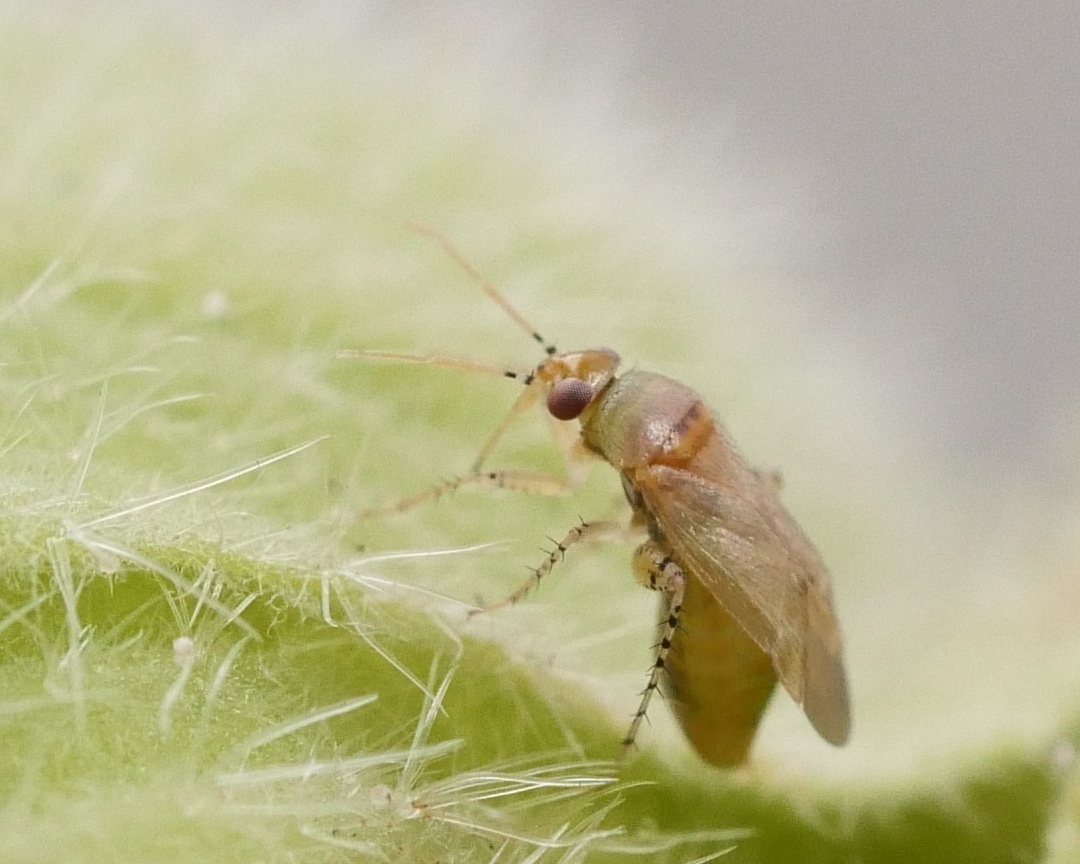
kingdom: Animalia
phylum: Arthropoda
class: Insecta
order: Hemiptera
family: Miridae
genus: Campylomma
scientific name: Campylomma verbasci
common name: Mullein bug
